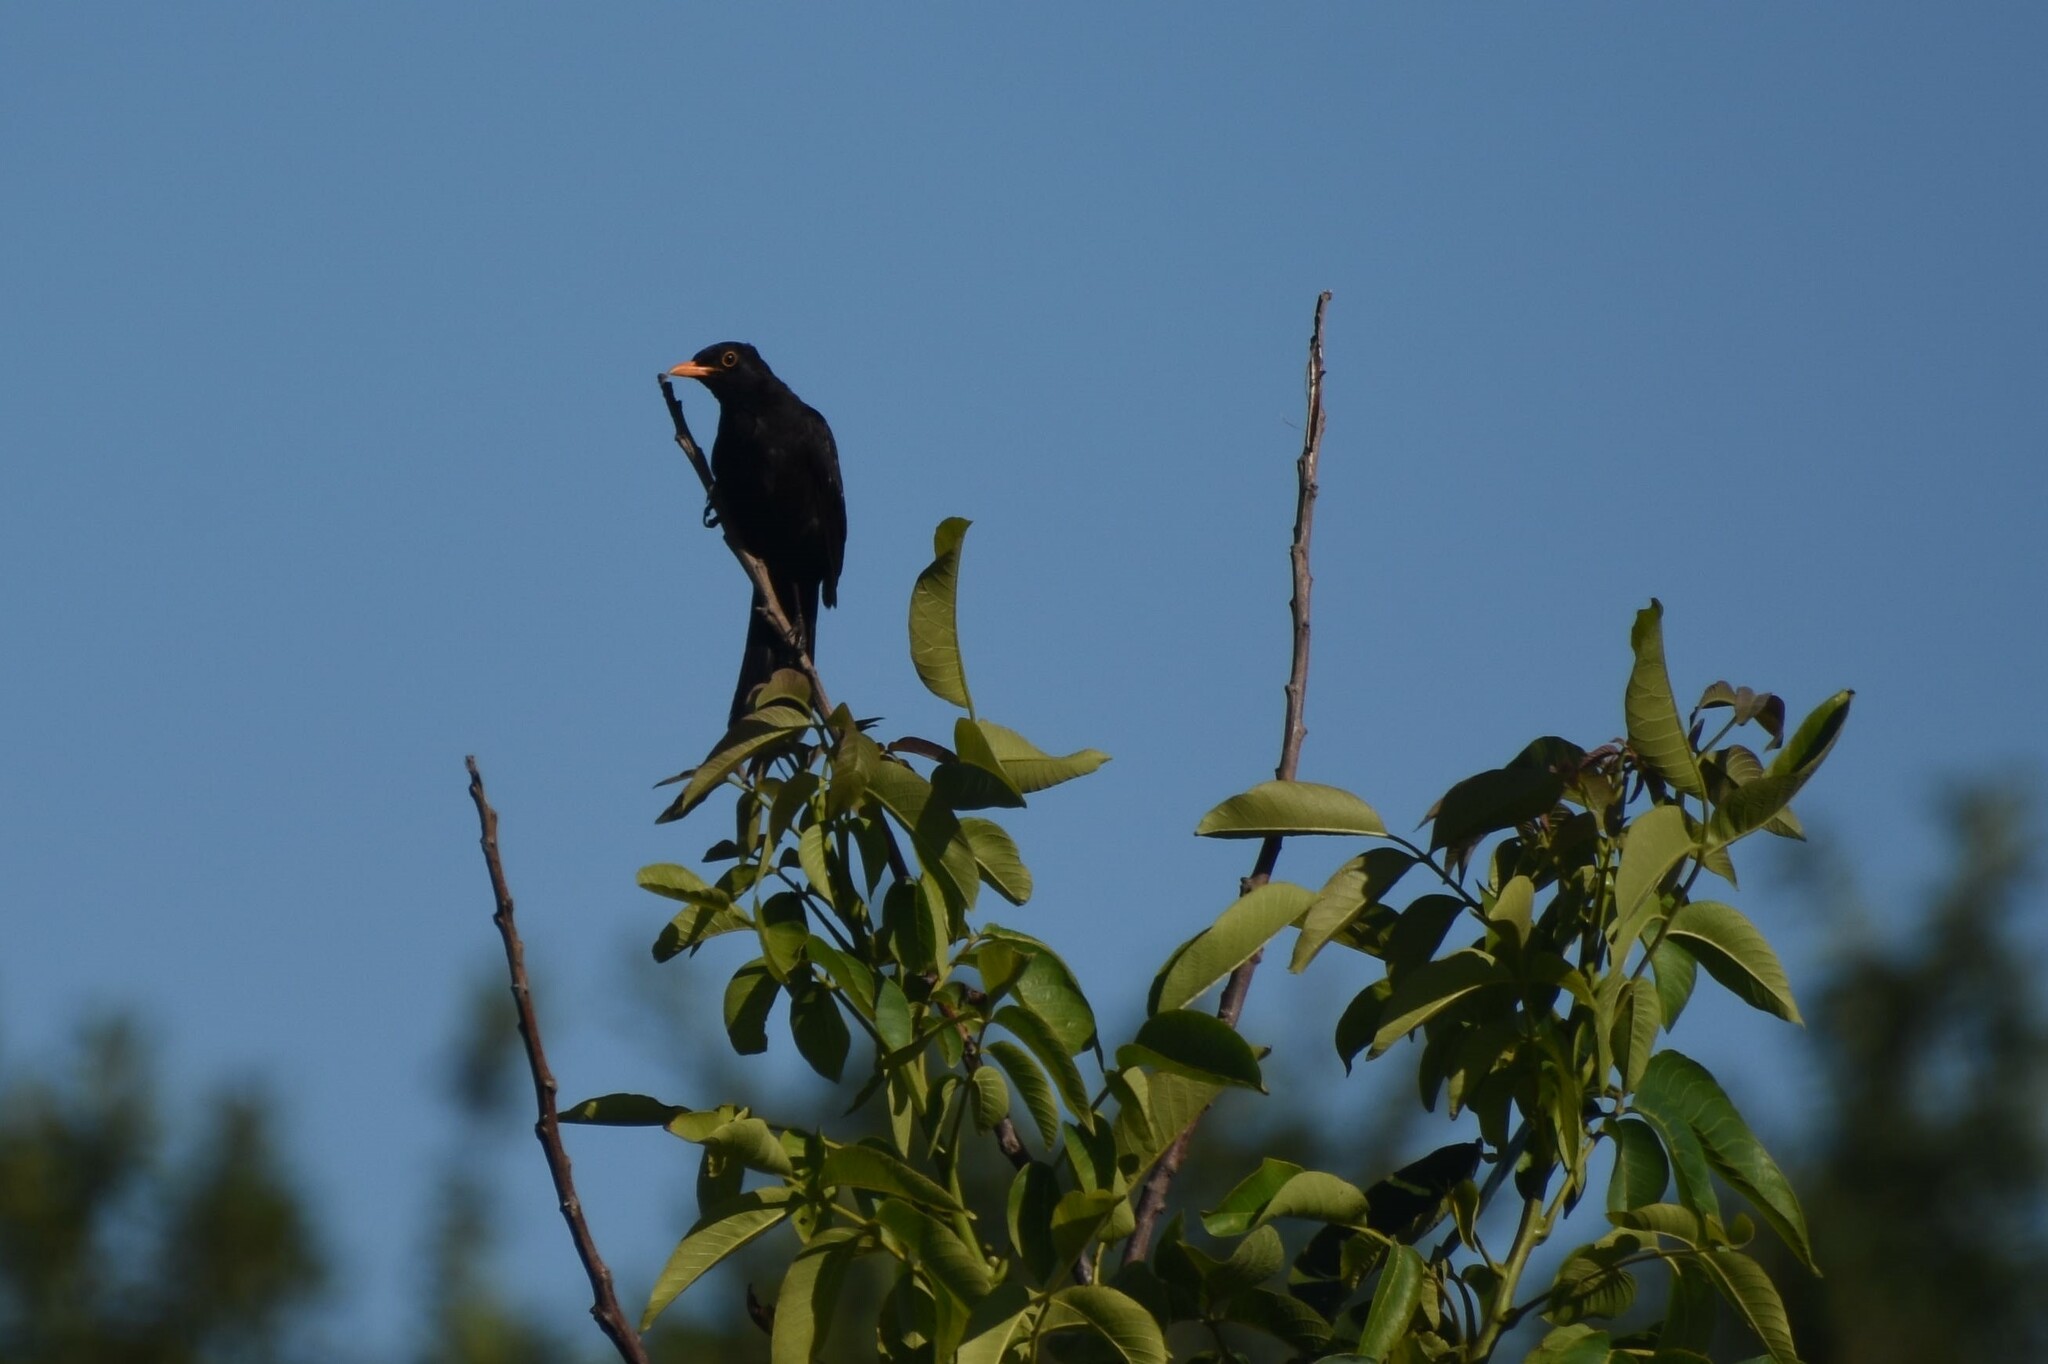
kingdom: Animalia
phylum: Chordata
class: Aves
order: Passeriformes
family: Turdidae
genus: Turdus
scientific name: Turdus merula
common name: Common blackbird
